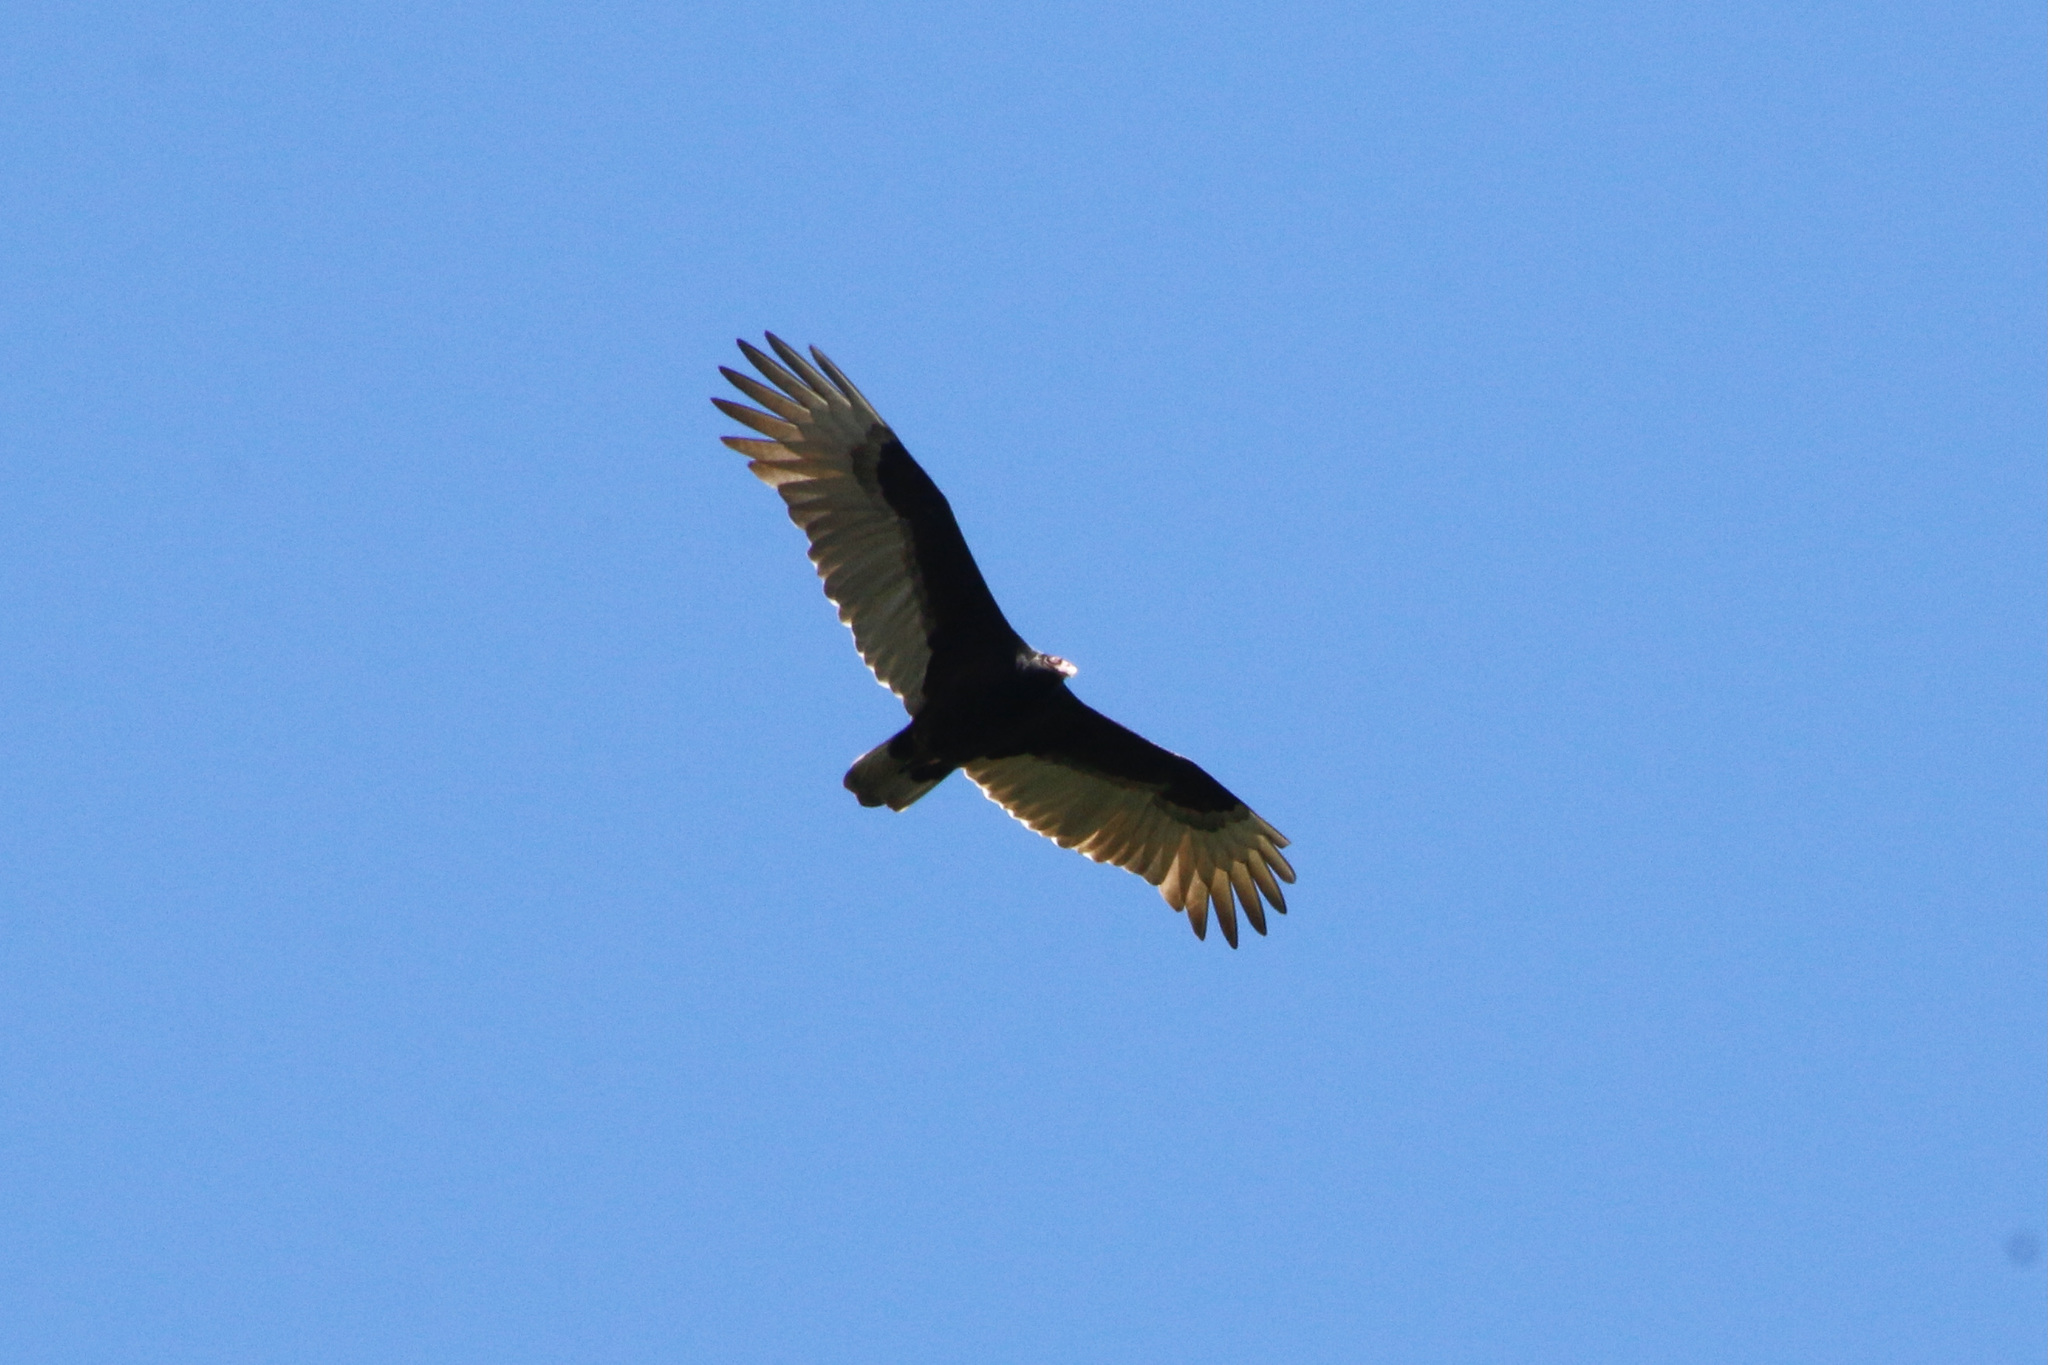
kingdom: Animalia
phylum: Chordata
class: Aves
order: Accipitriformes
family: Cathartidae
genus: Cathartes
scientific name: Cathartes aura
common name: Turkey vulture
